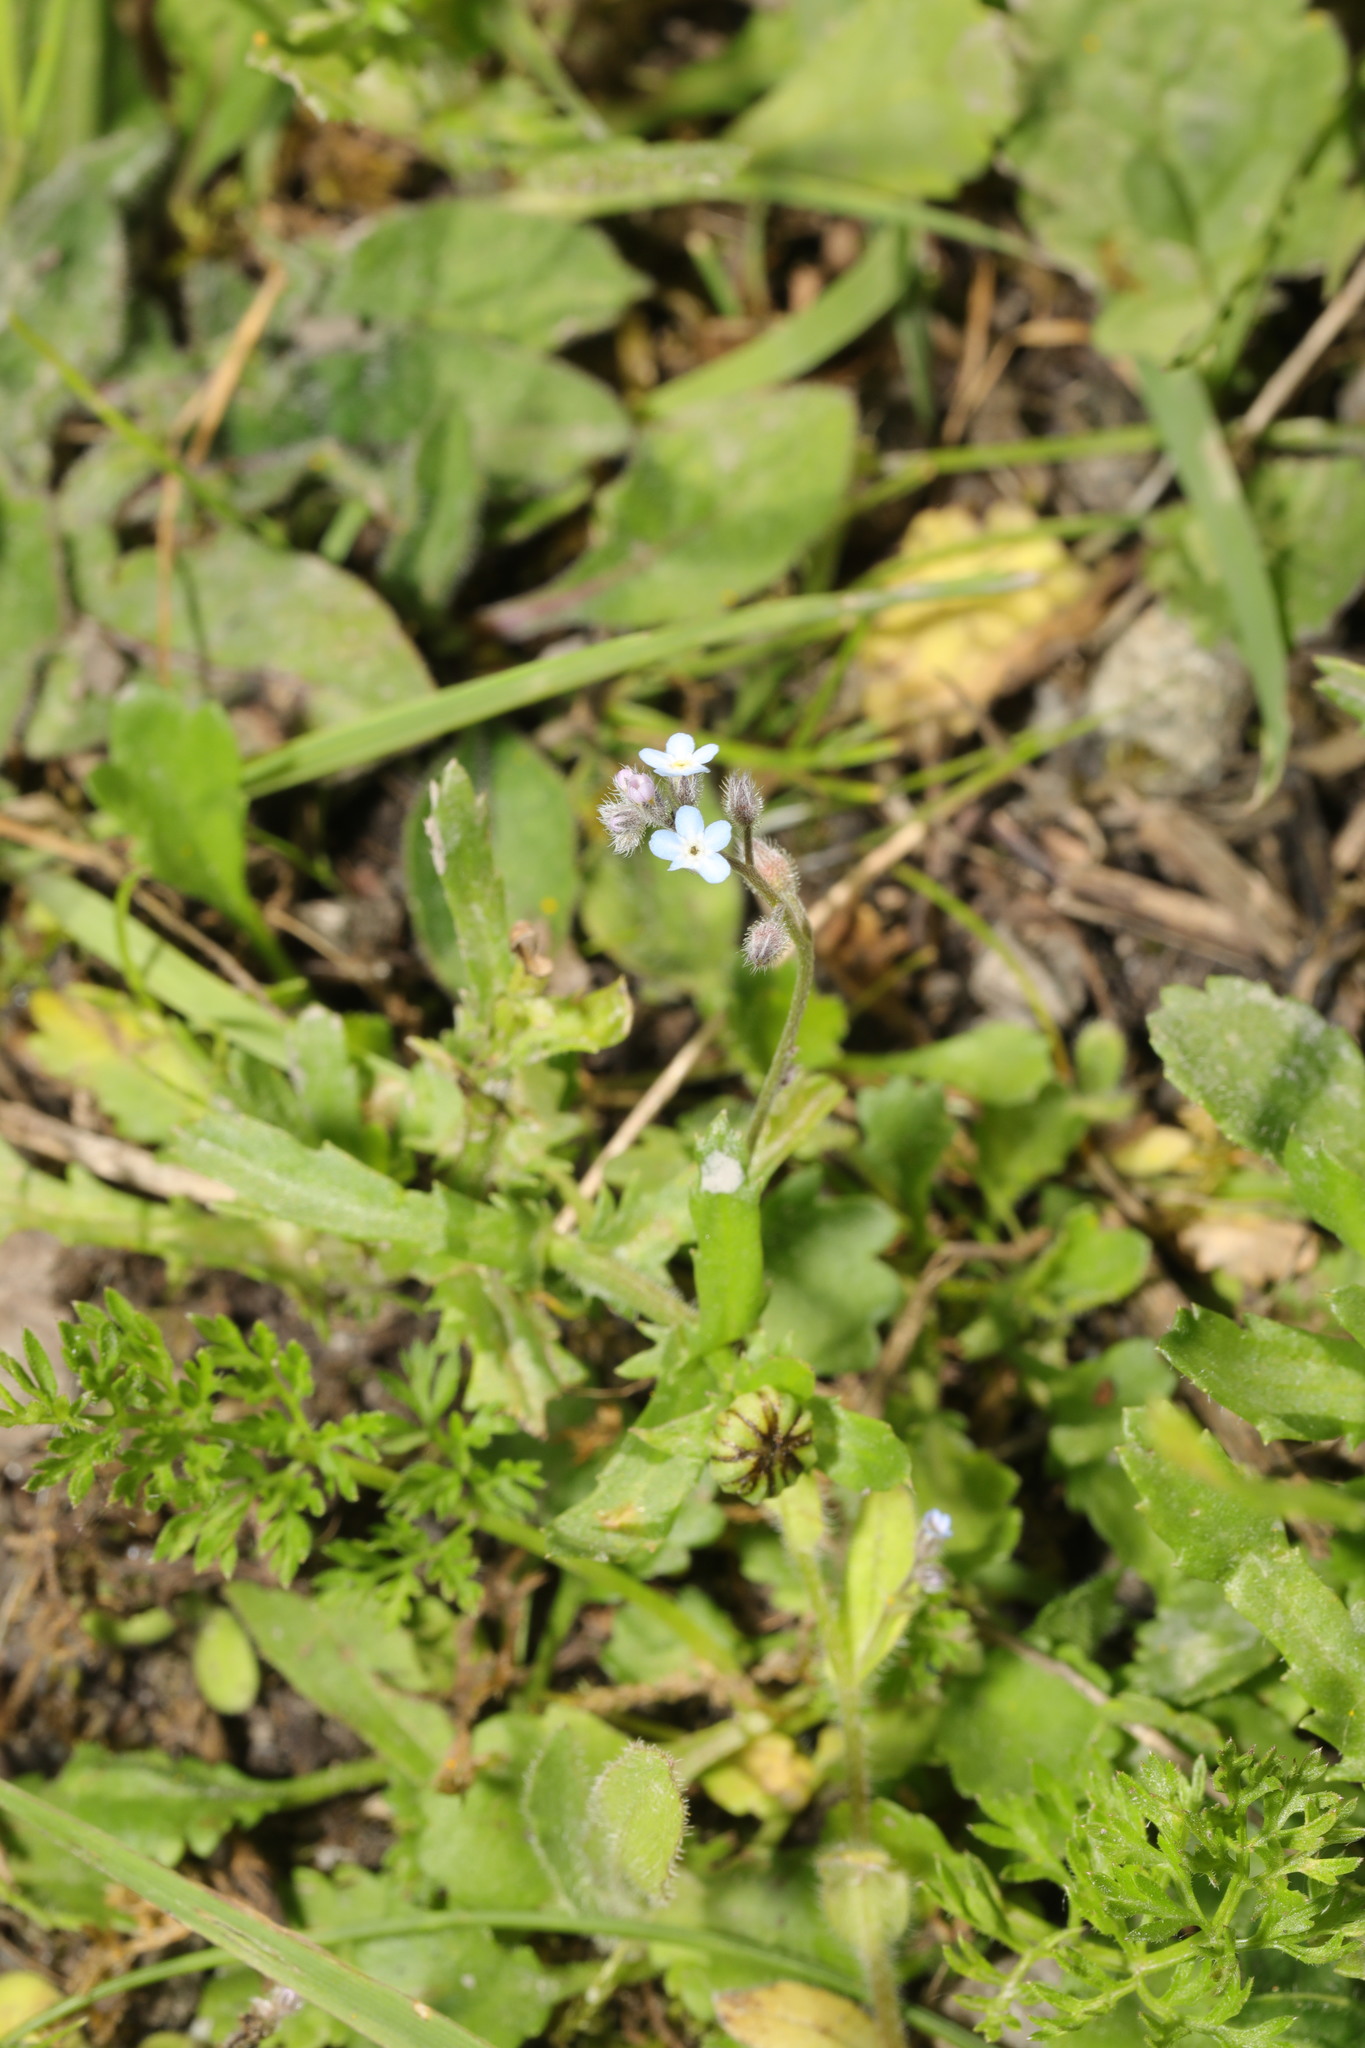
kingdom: Plantae
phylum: Tracheophyta
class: Magnoliopsida
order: Boraginales
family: Boraginaceae
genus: Myosotis
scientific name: Myosotis arvensis
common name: Field forget-me-not
